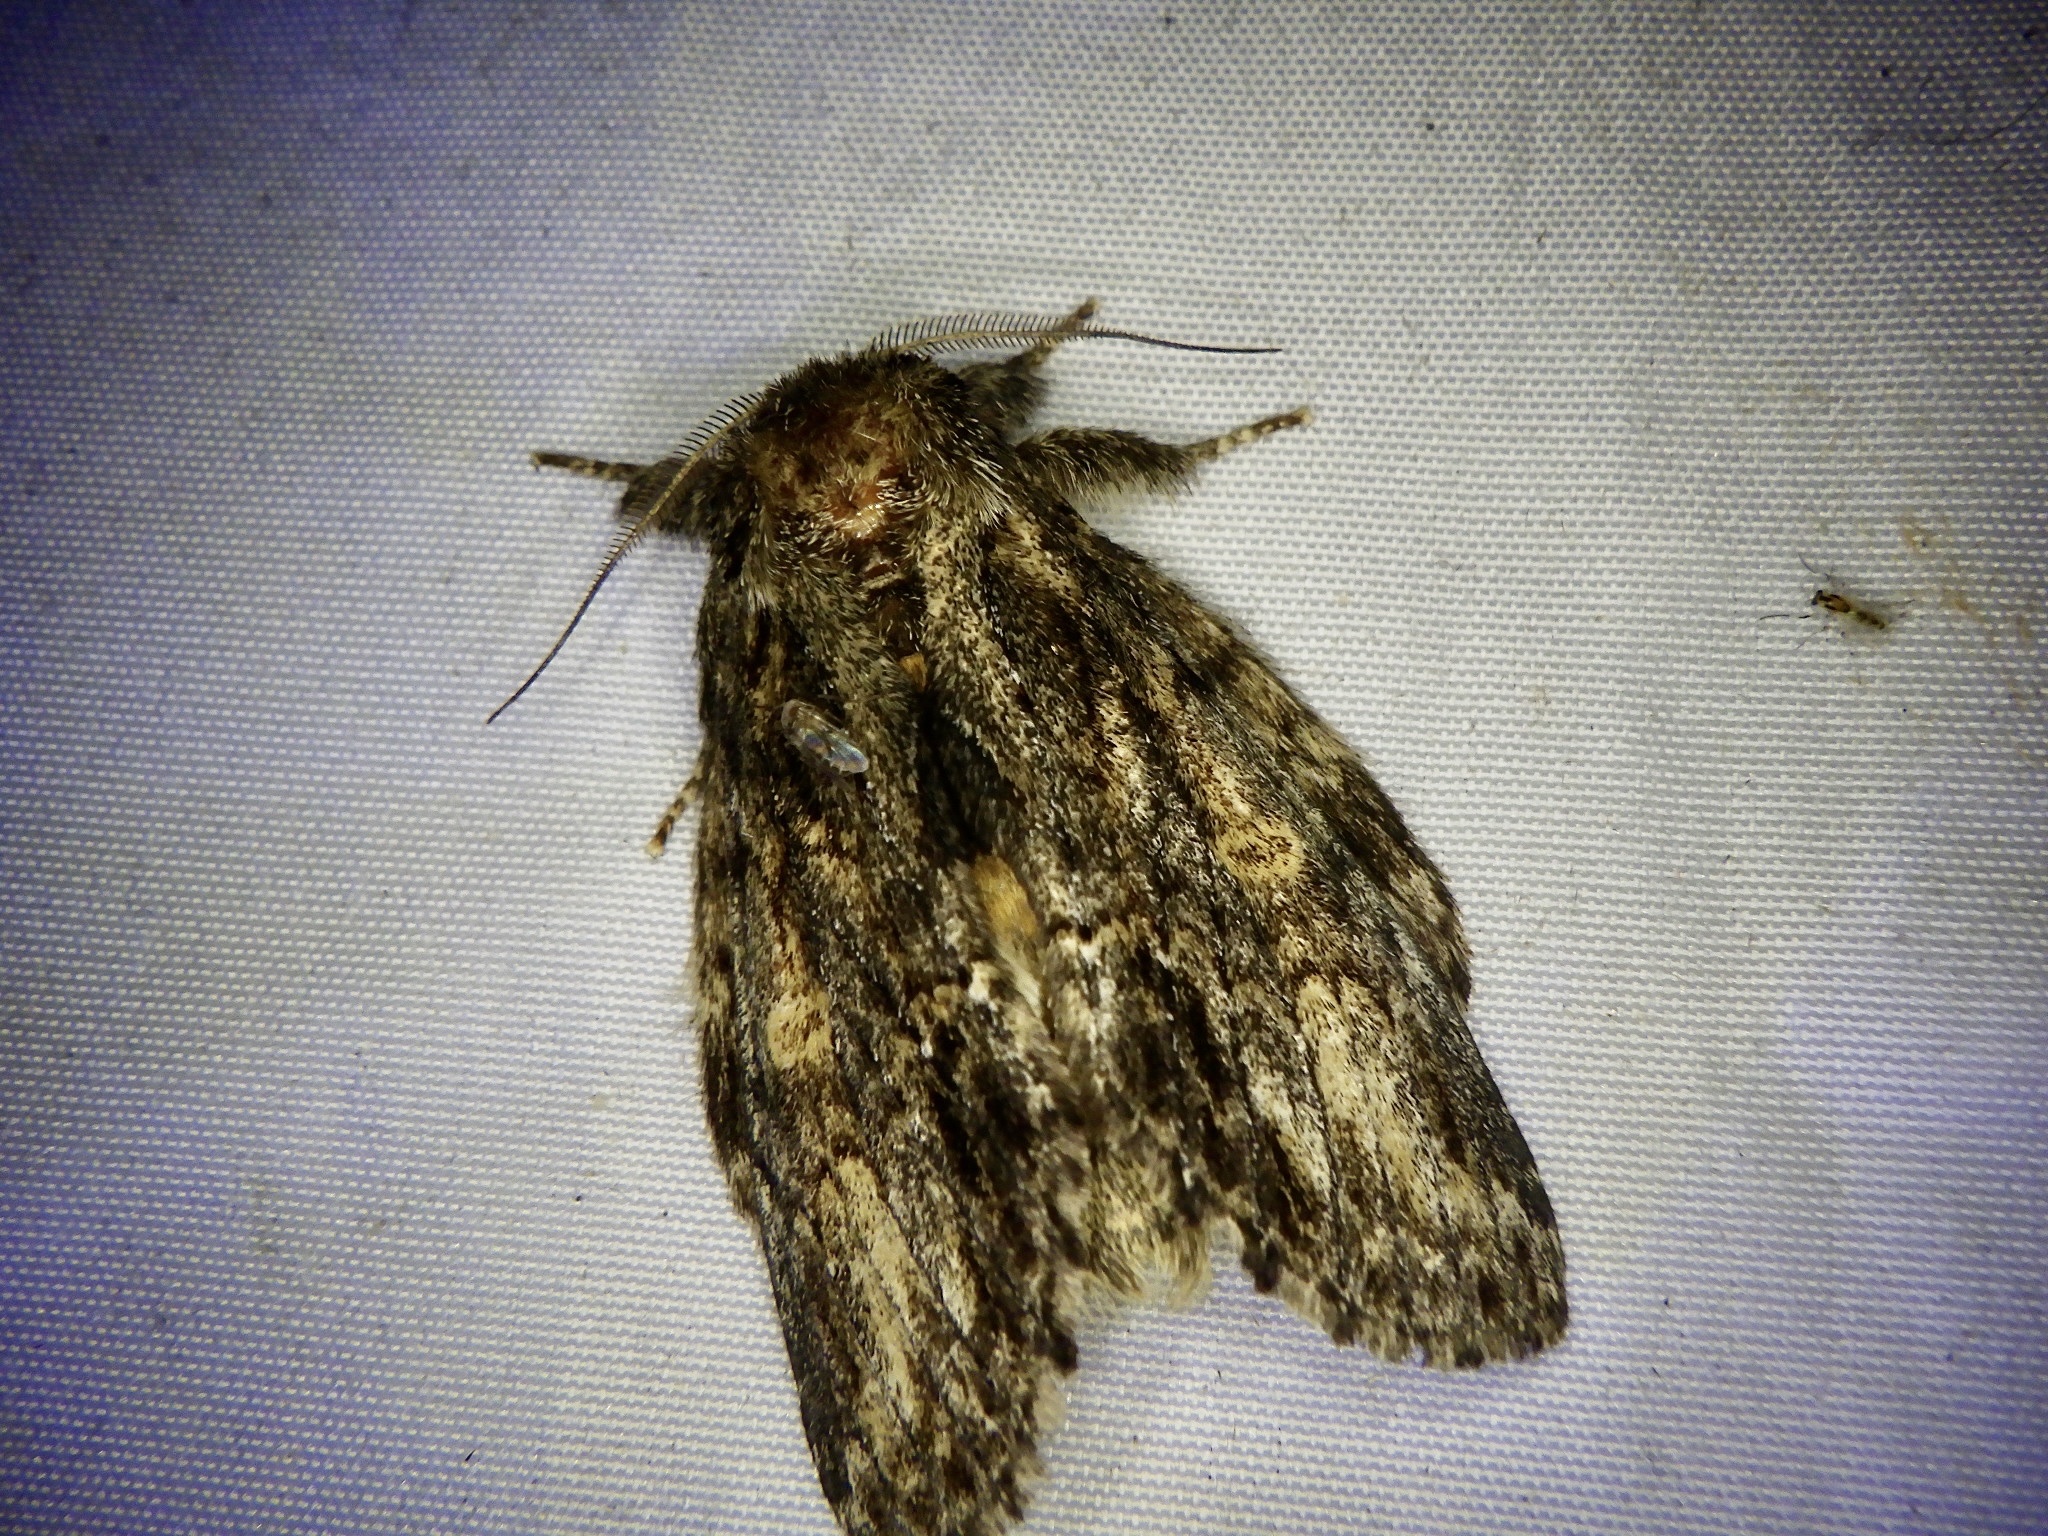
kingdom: Animalia
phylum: Arthropoda
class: Insecta
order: Lepidoptera
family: Notodontidae
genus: Fusadonta
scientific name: Fusadonta basilinea
